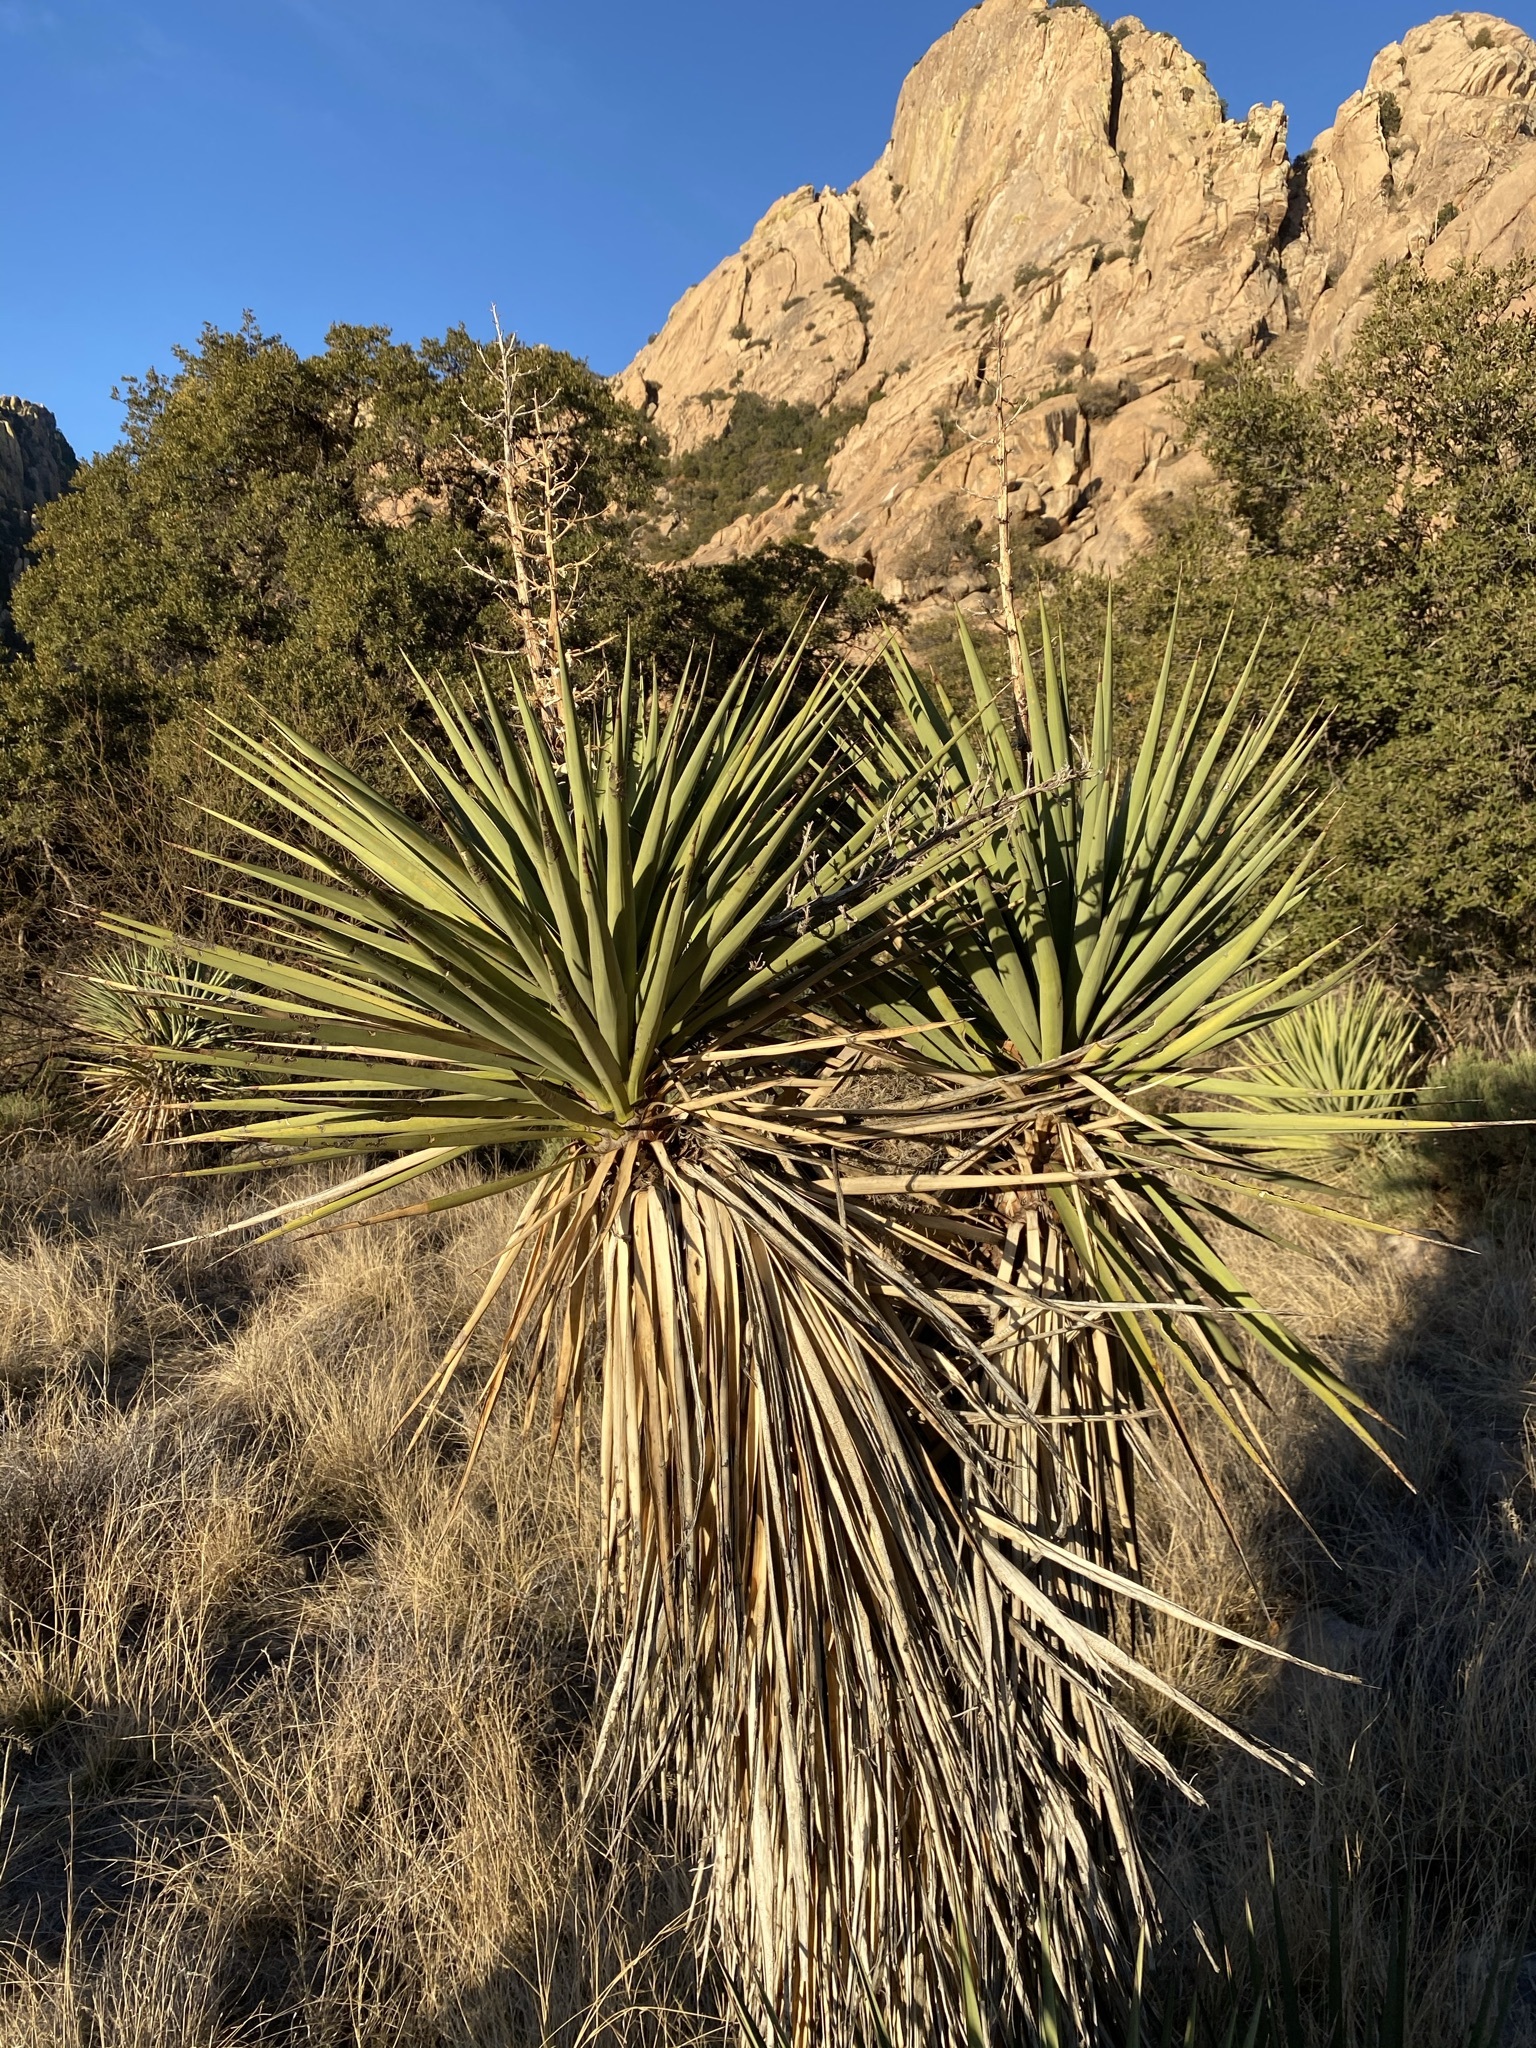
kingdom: Plantae
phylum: Tracheophyta
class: Liliopsida
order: Asparagales
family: Asparagaceae
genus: Yucca
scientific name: Yucca madrensis
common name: Hoary yucca
